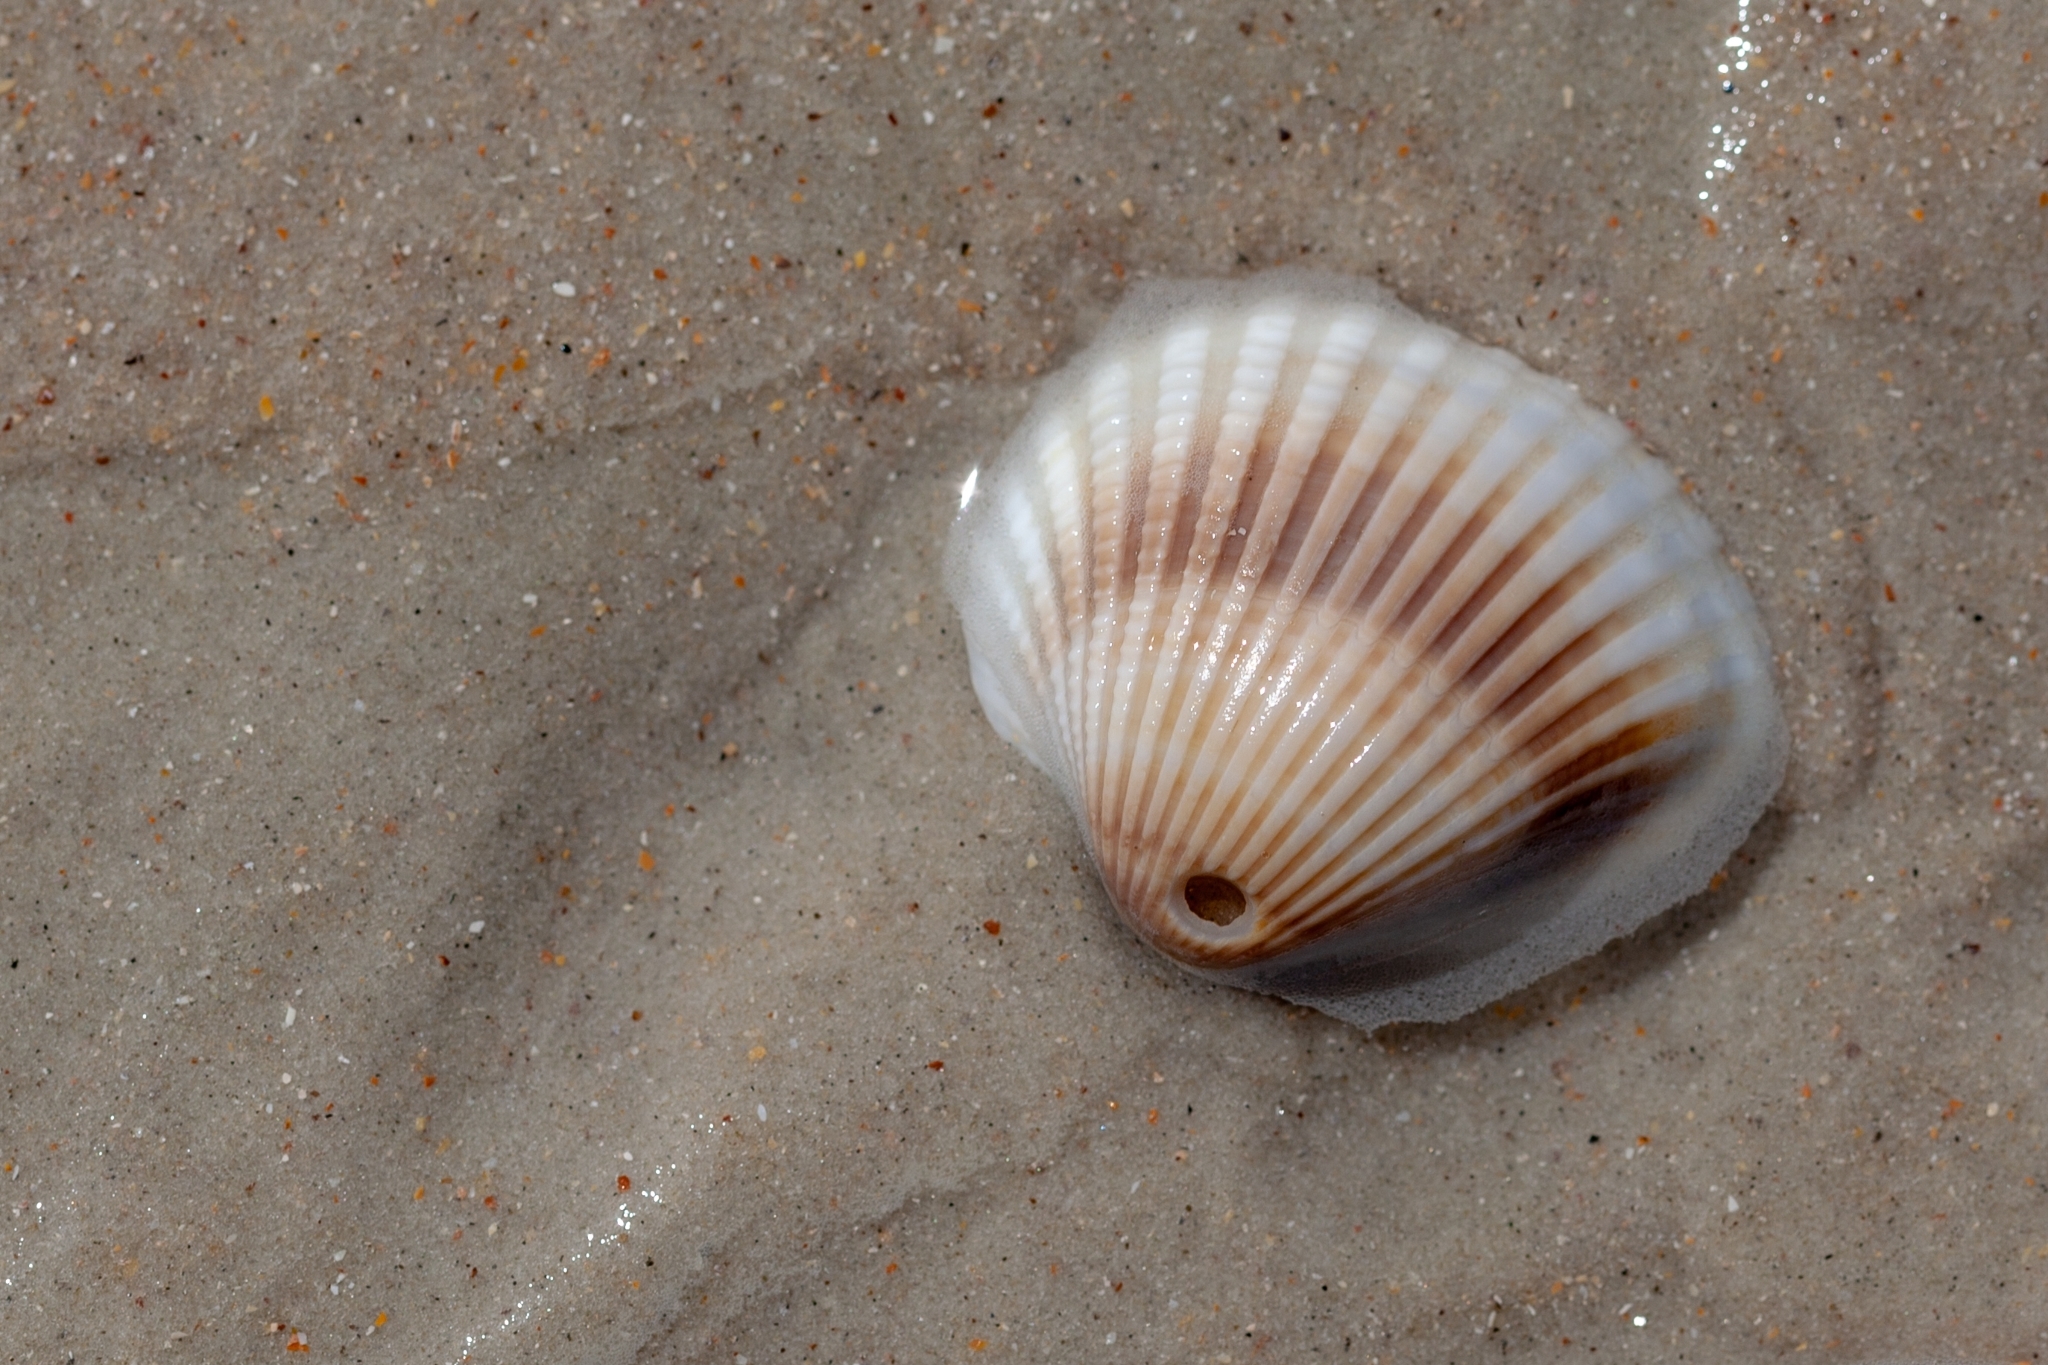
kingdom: Animalia
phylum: Mollusca
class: Bivalvia
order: Arcida
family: Arcidae
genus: Anadara
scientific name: Anadara brasiliana
